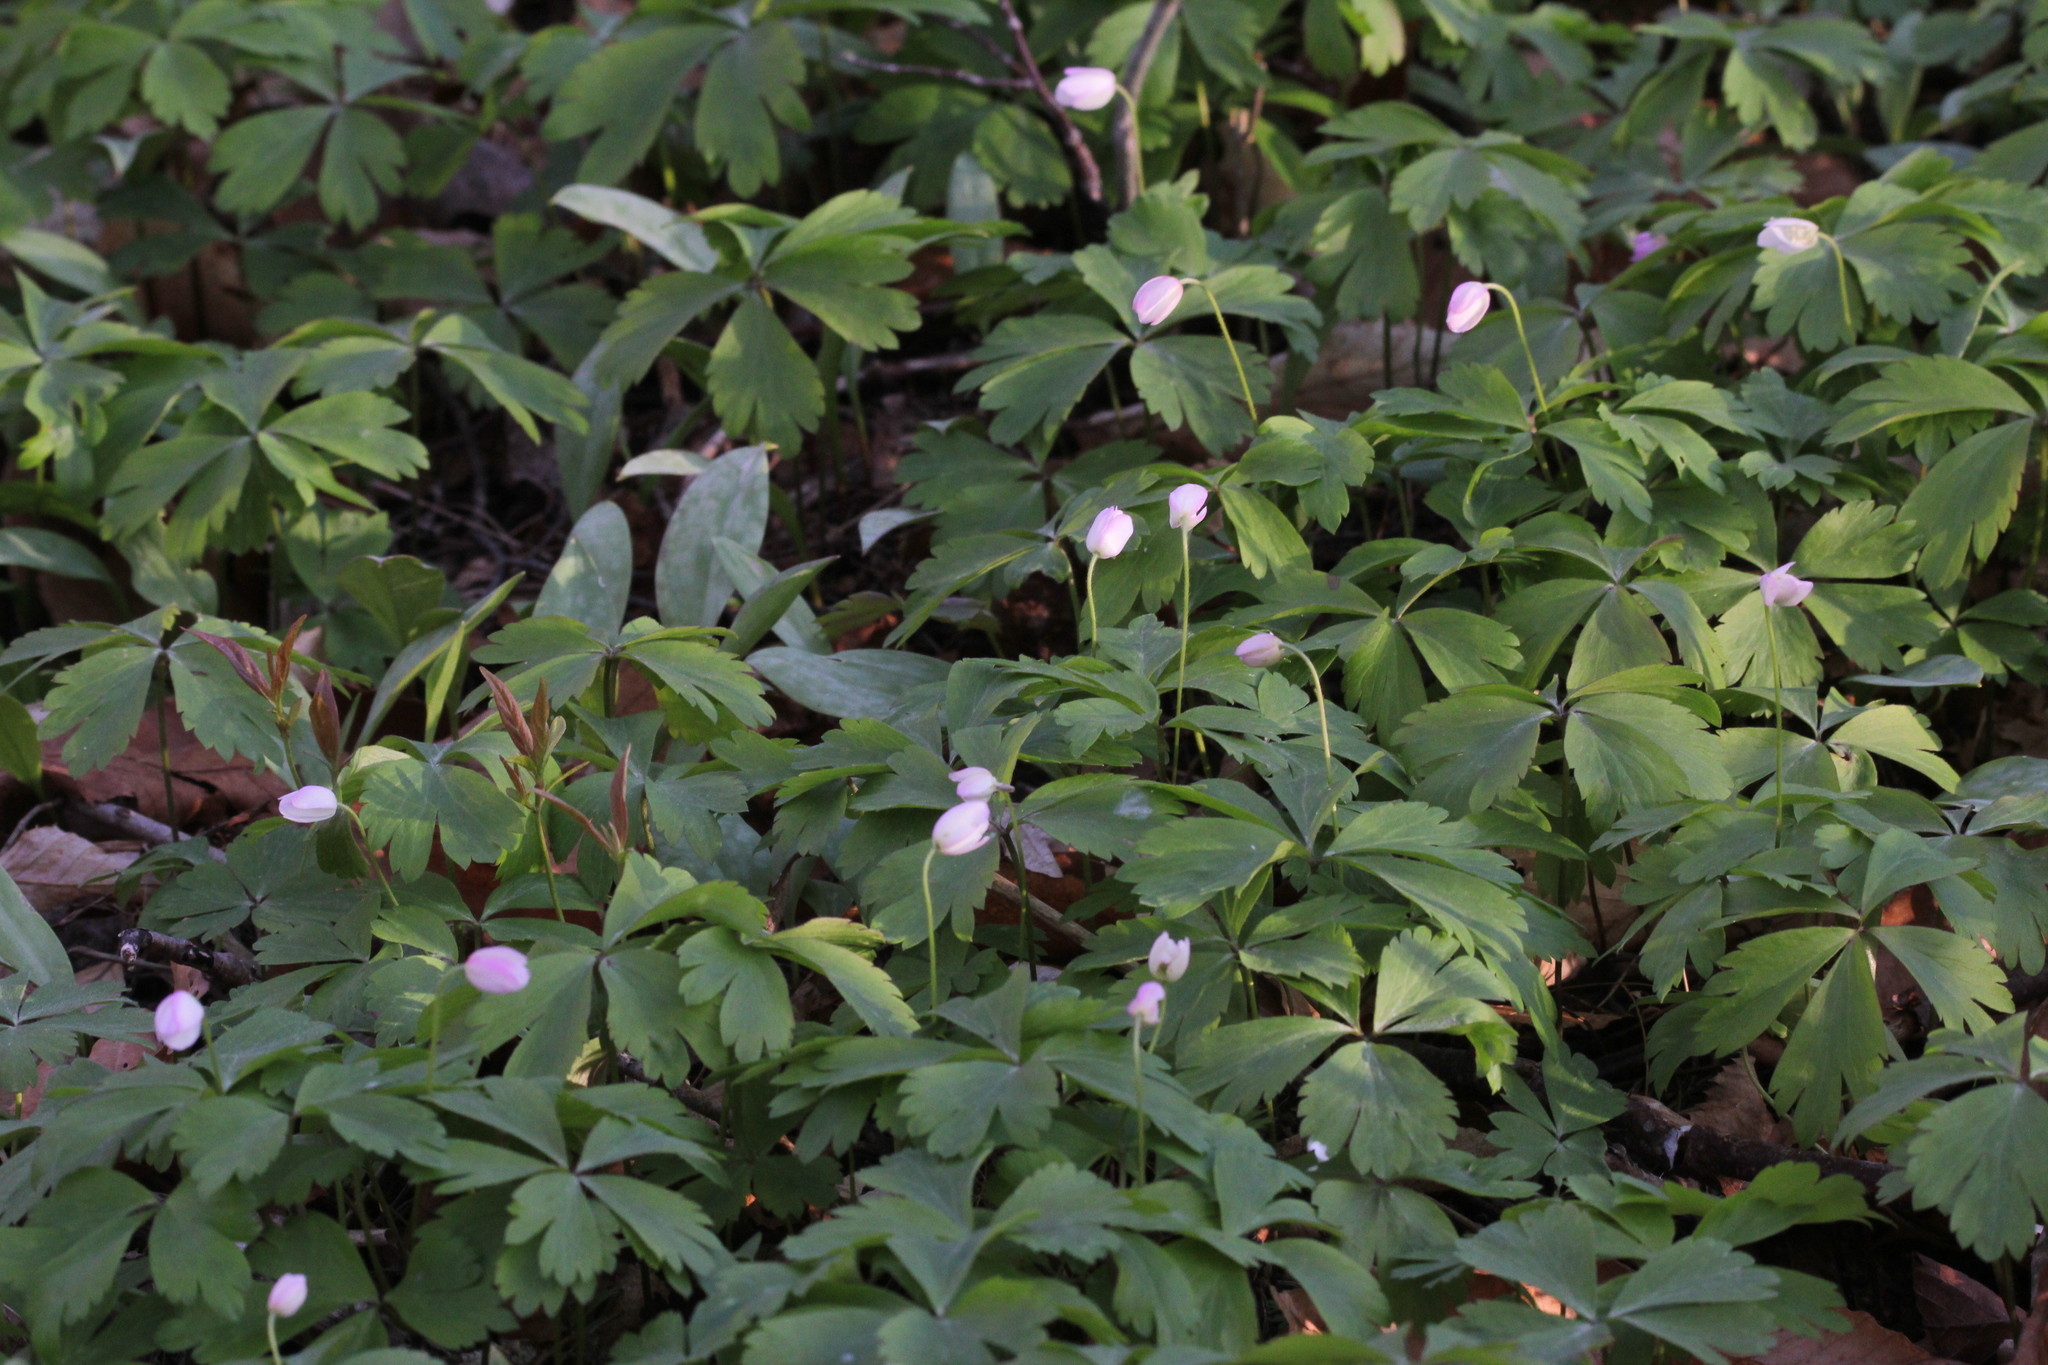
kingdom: Plantae
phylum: Tracheophyta
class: Magnoliopsida
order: Ranunculales
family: Ranunculaceae
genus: Anemone
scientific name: Anemone quinquefolia
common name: Wood anemone
